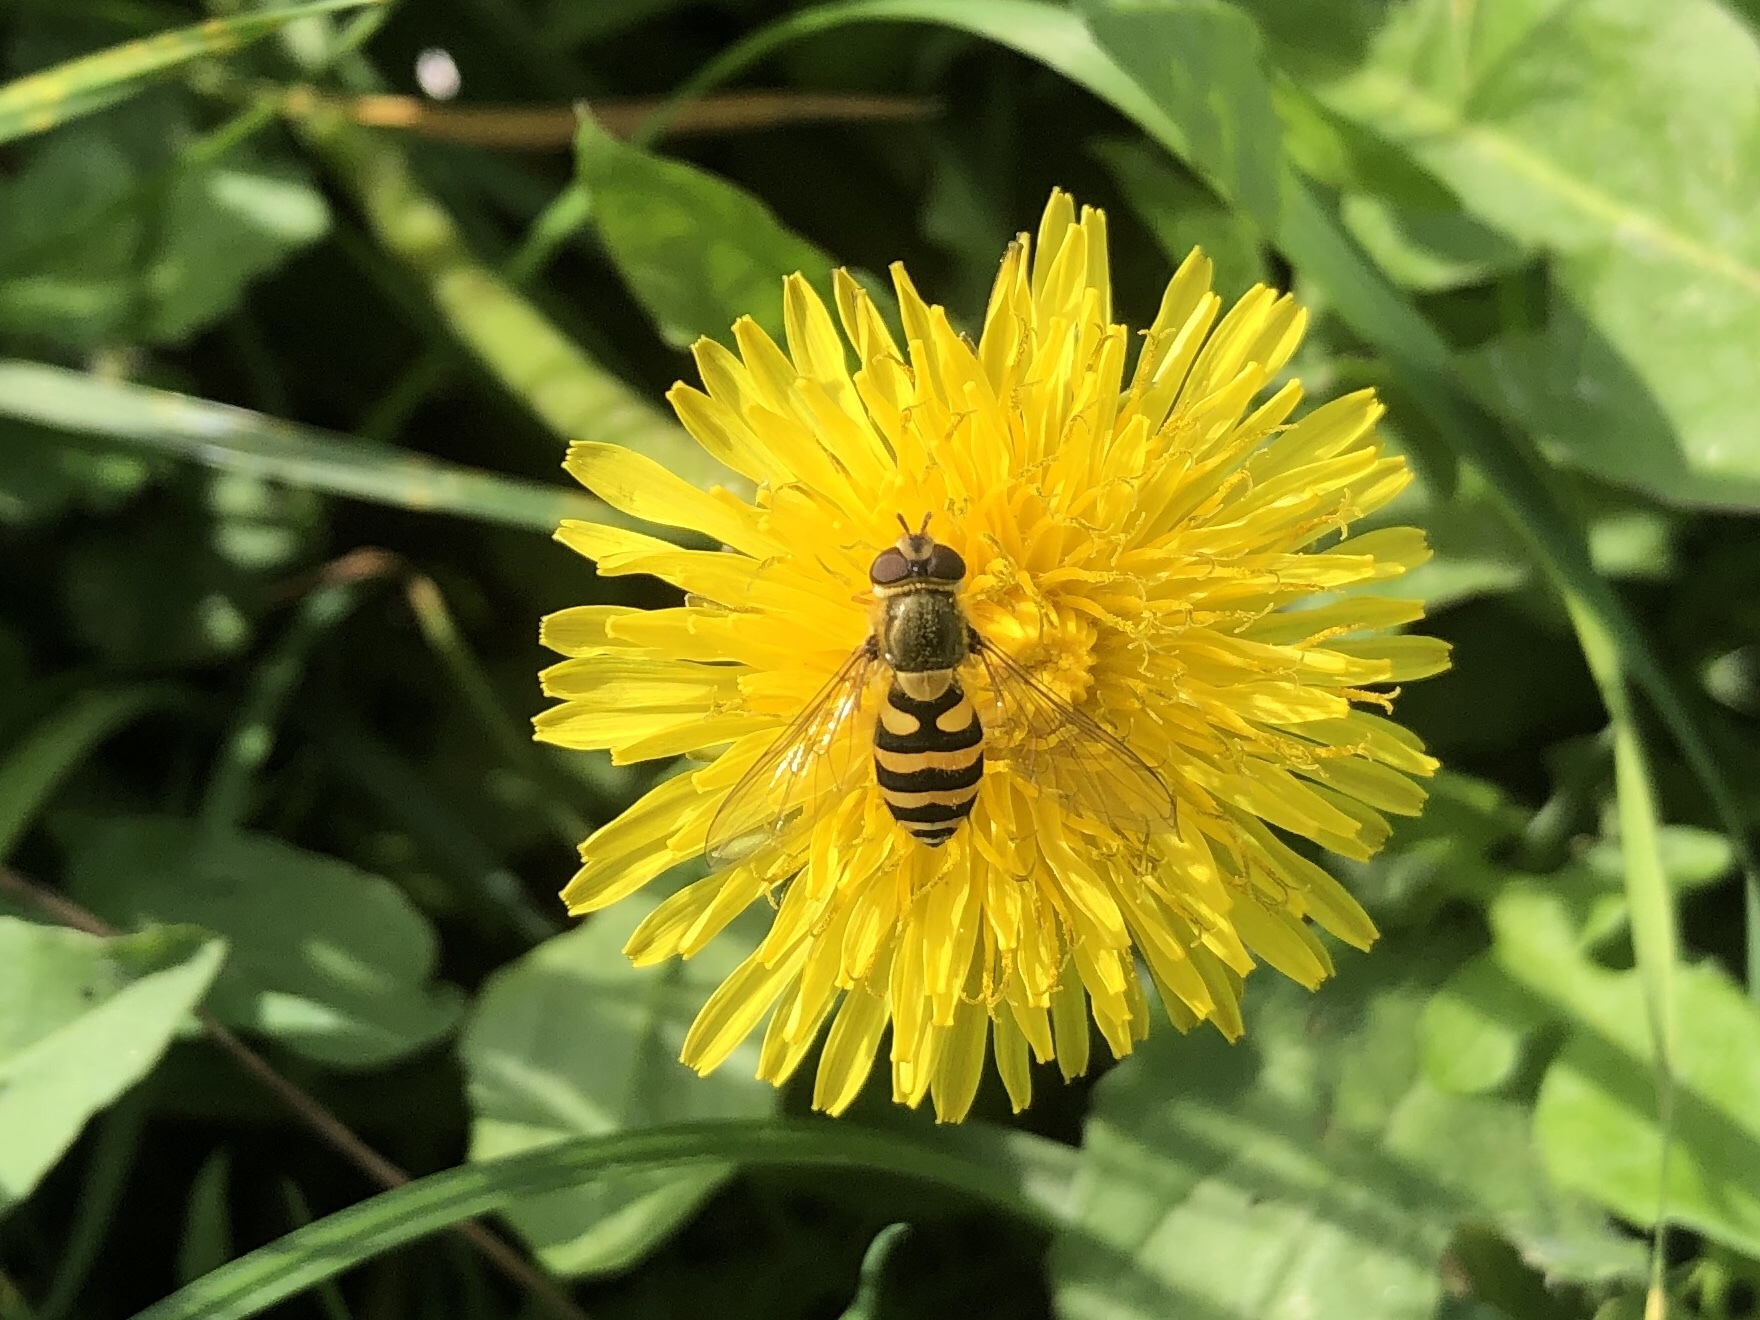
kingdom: Animalia
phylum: Arthropoda
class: Insecta
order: Diptera
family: Syrphidae
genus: Syrphus
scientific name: Syrphus
